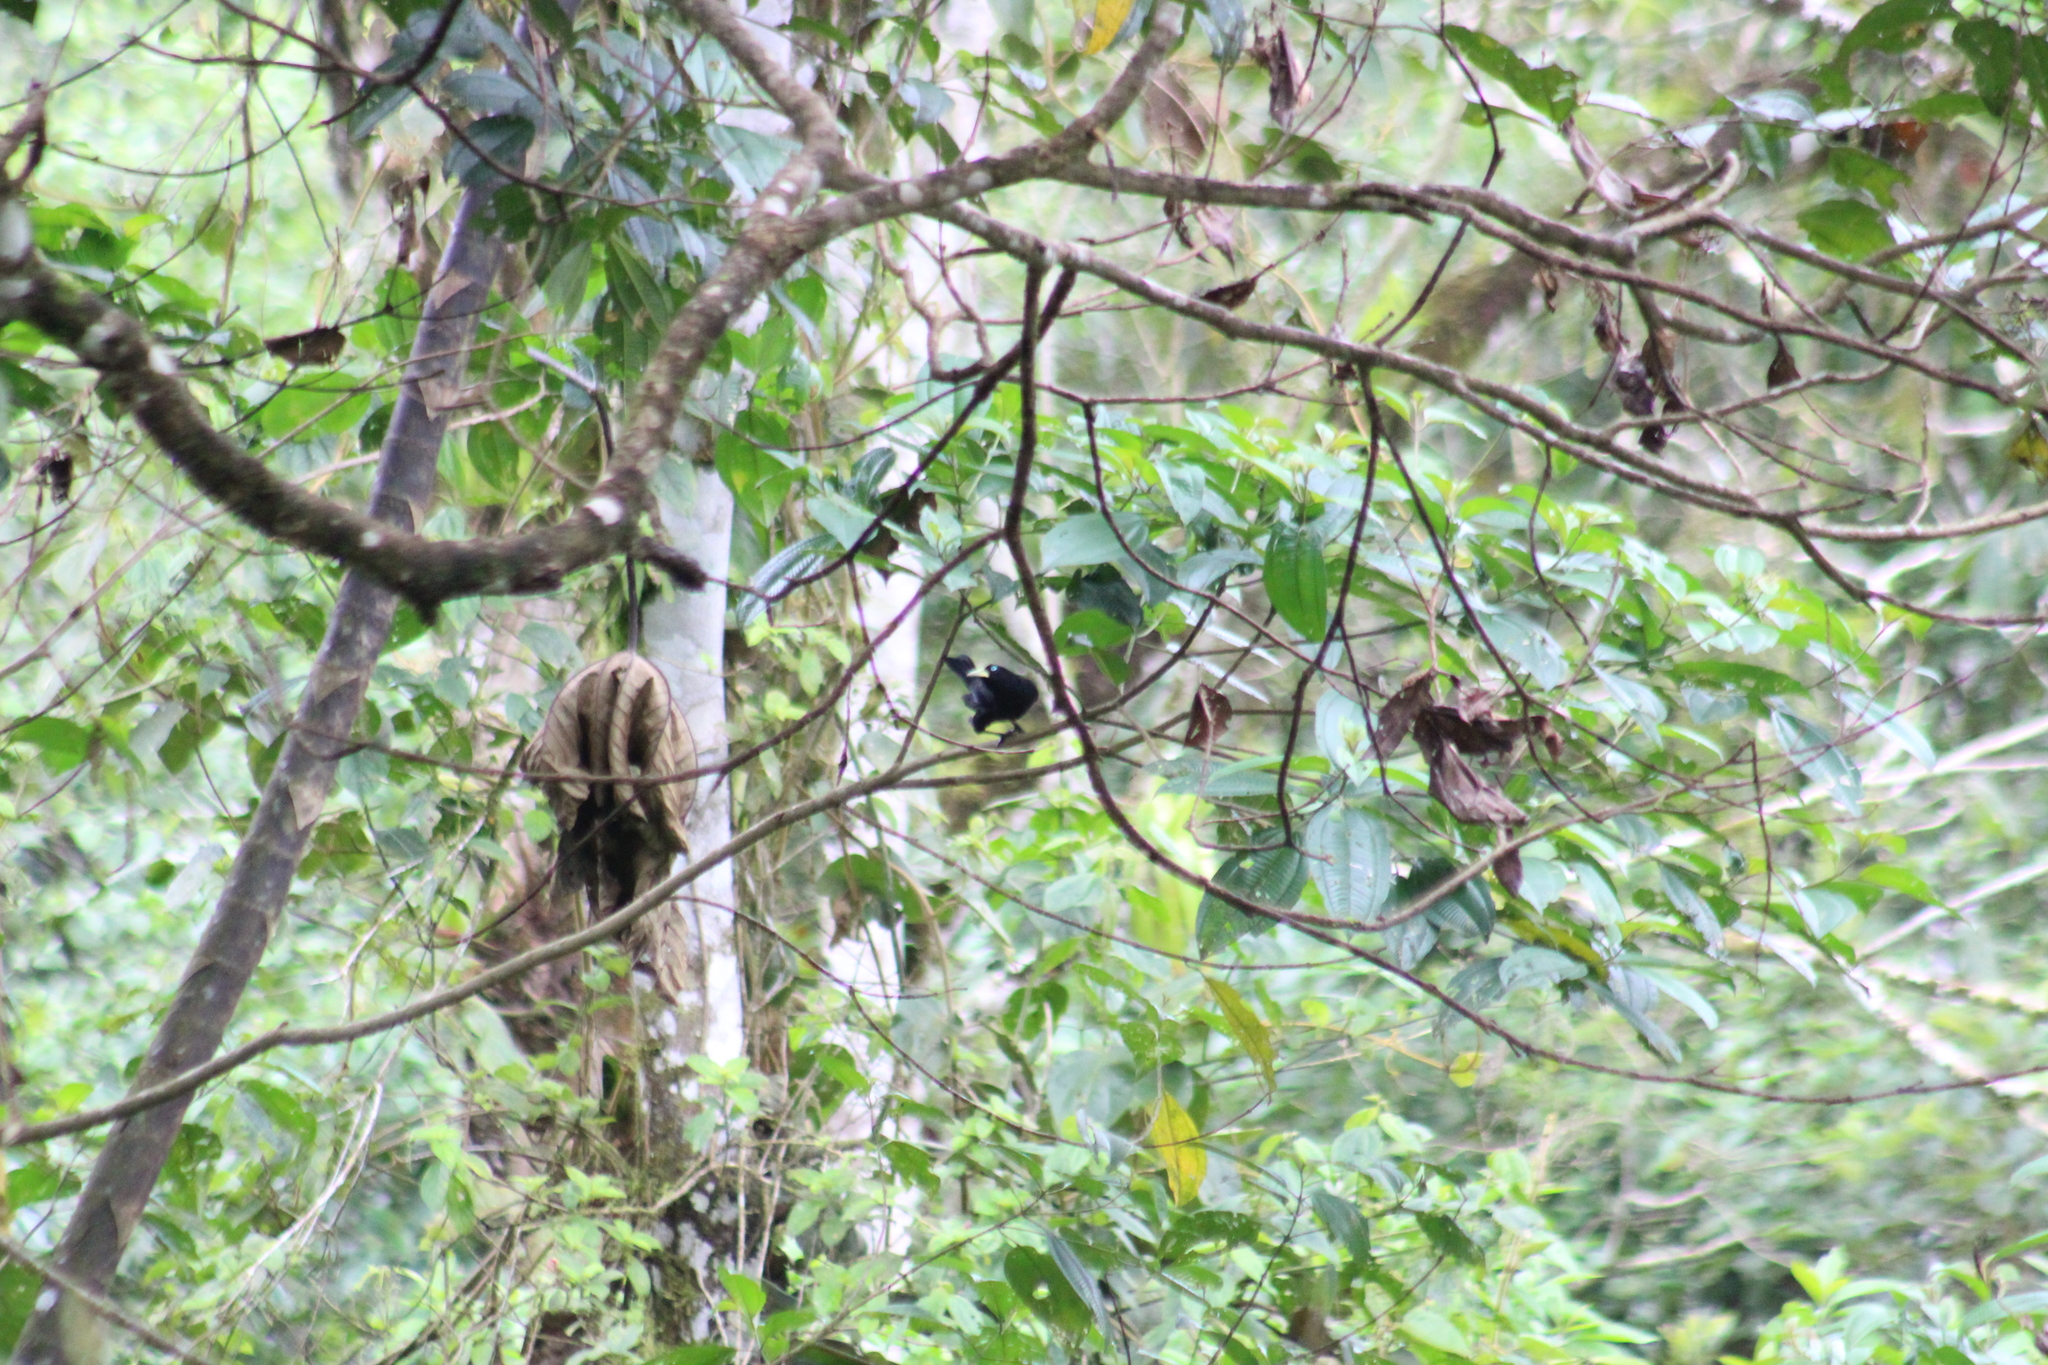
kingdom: Animalia
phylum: Chordata
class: Aves
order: Passeriformes
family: Icteridae
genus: Cacicus
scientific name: Cacicus uropygialis
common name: Scarlet-rumped cacique
